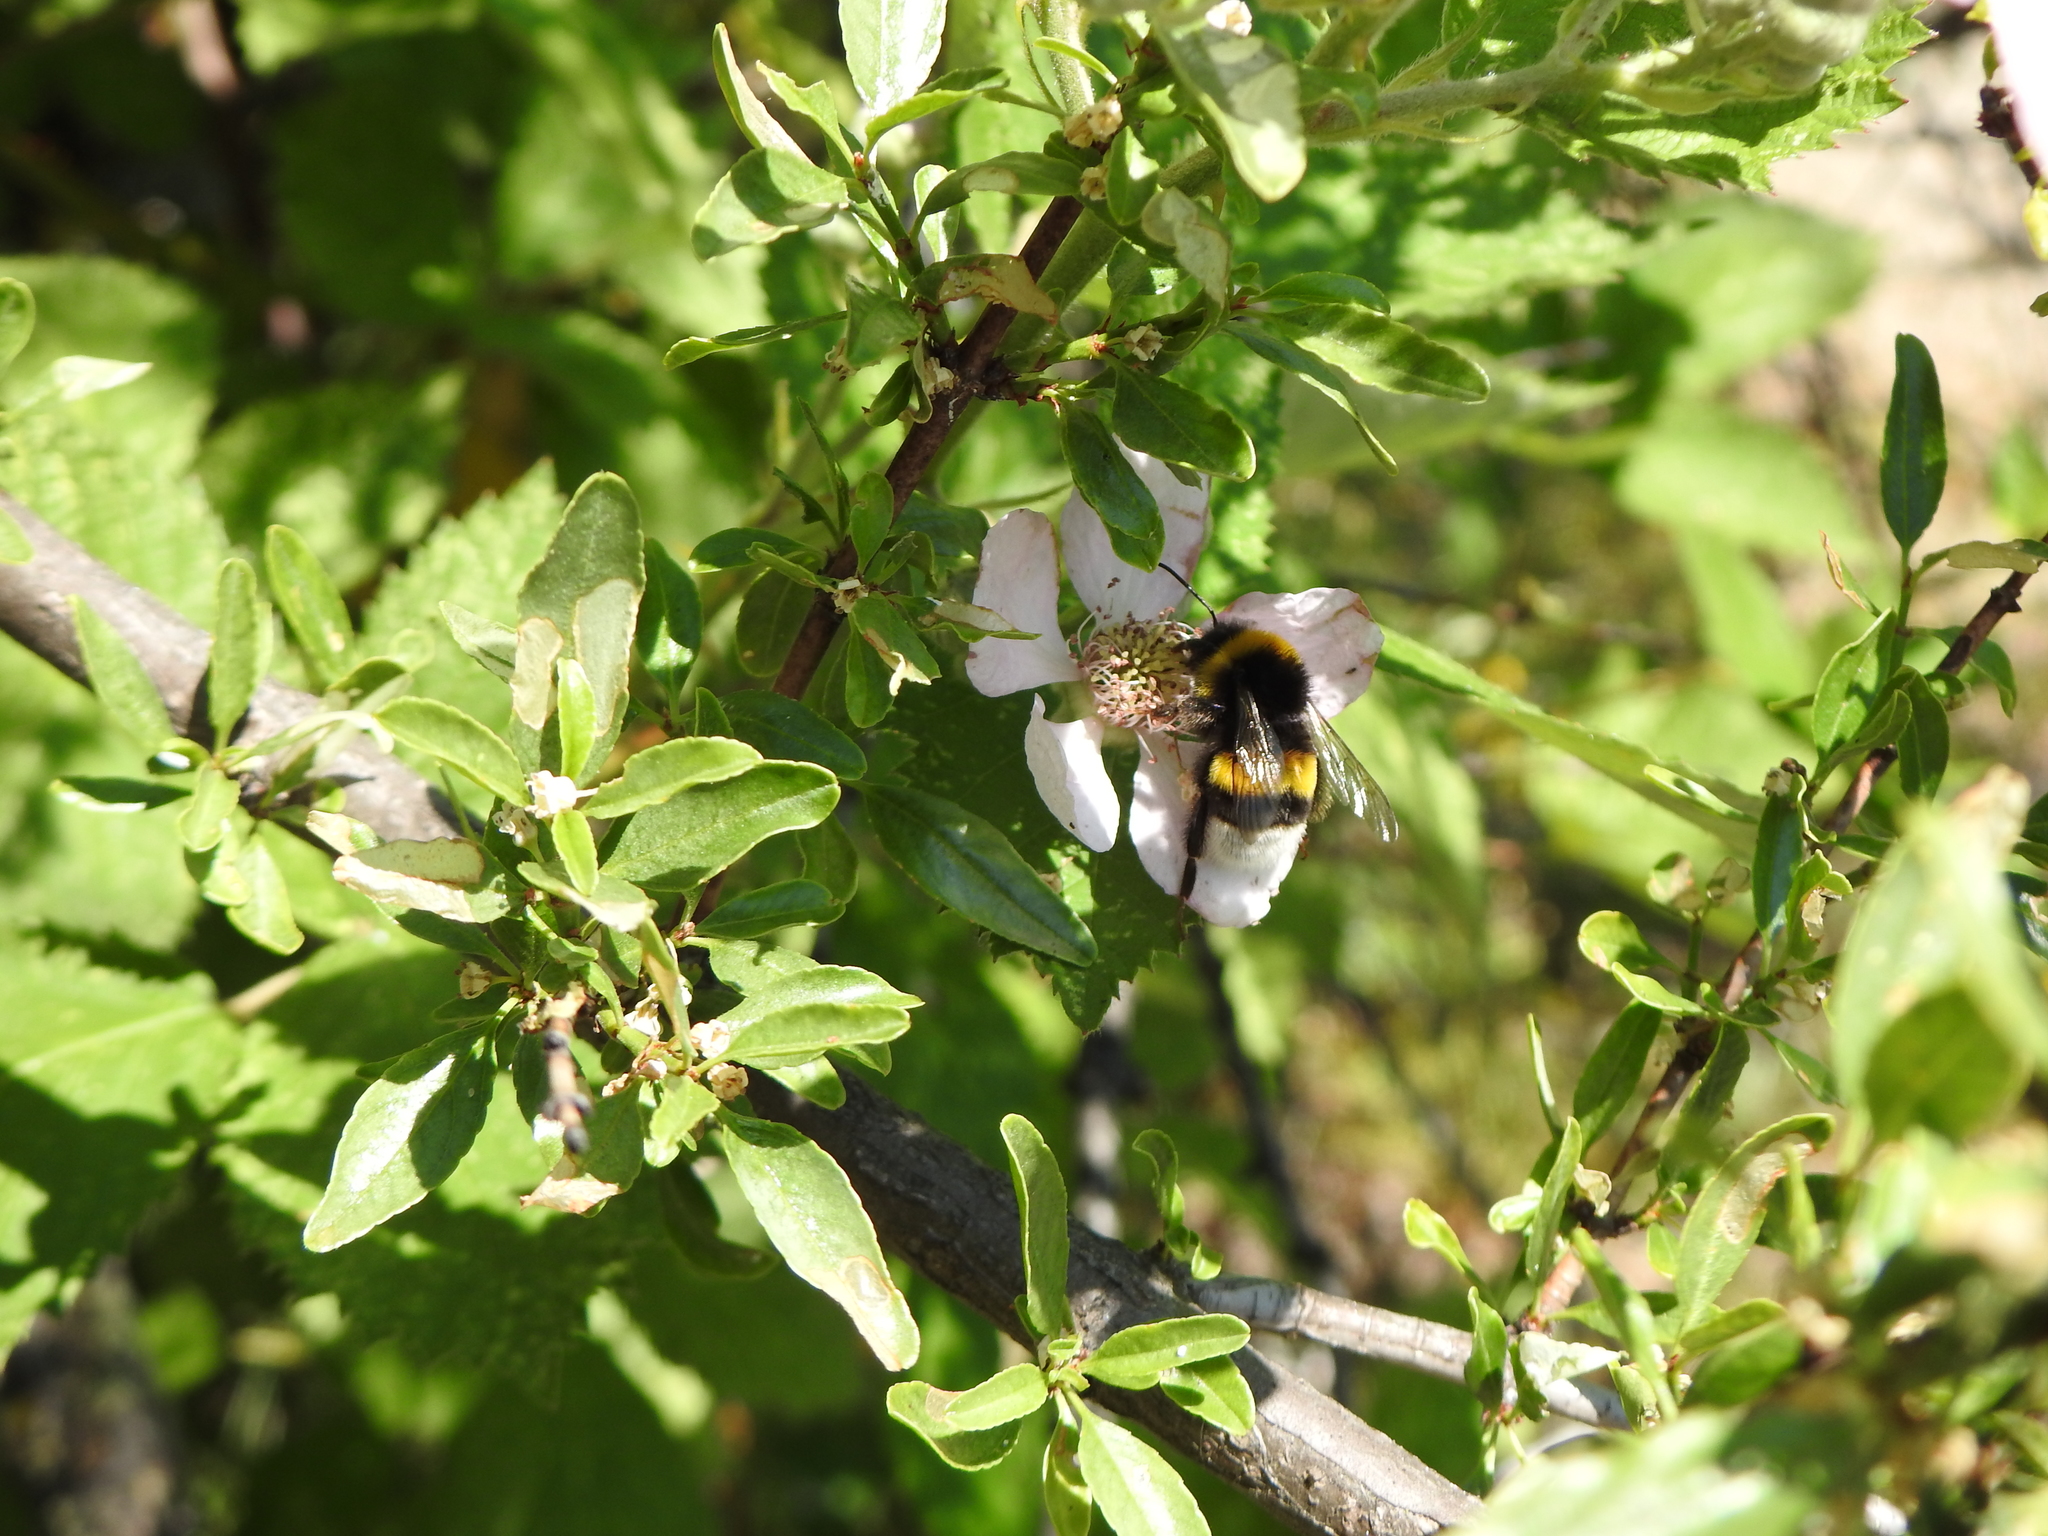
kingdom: Animalia
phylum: Arthropoda
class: Insecta
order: Hymenoptera
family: Apidae
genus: Bombus
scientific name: Bombus terrestris
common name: Buff-tailed bumblebee
